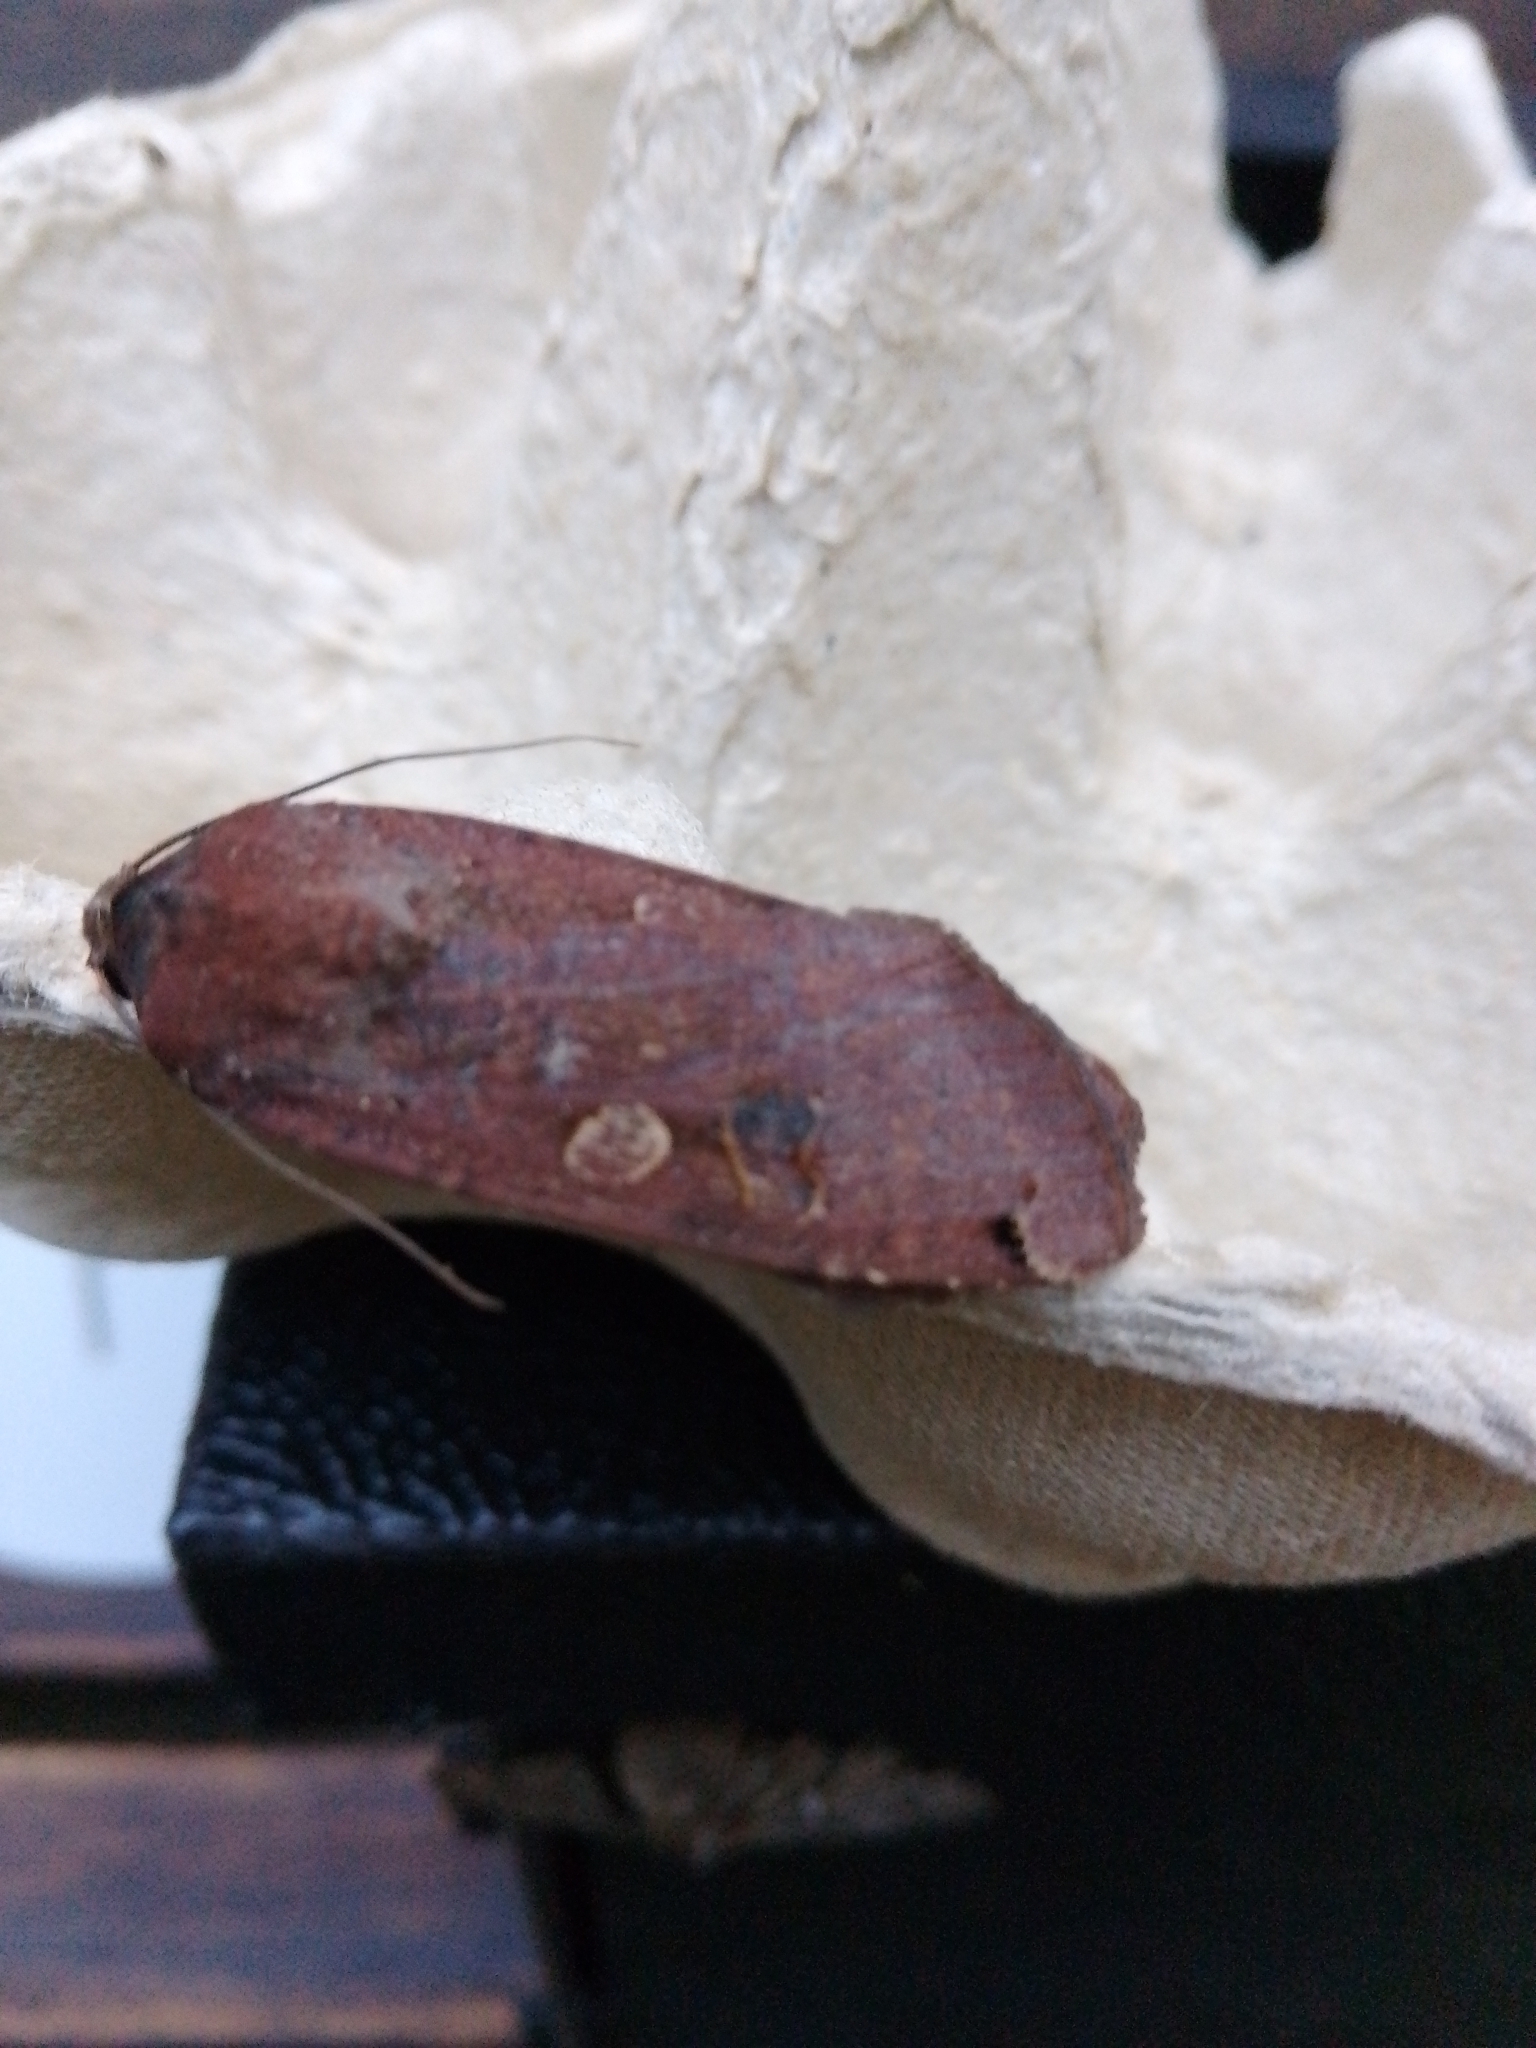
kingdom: Animalia
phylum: Arthropoda
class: Insecta
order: Lepidoptera
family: Noctuidae
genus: Noctua
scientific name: Noctua pronuba
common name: Large yellow underwing
